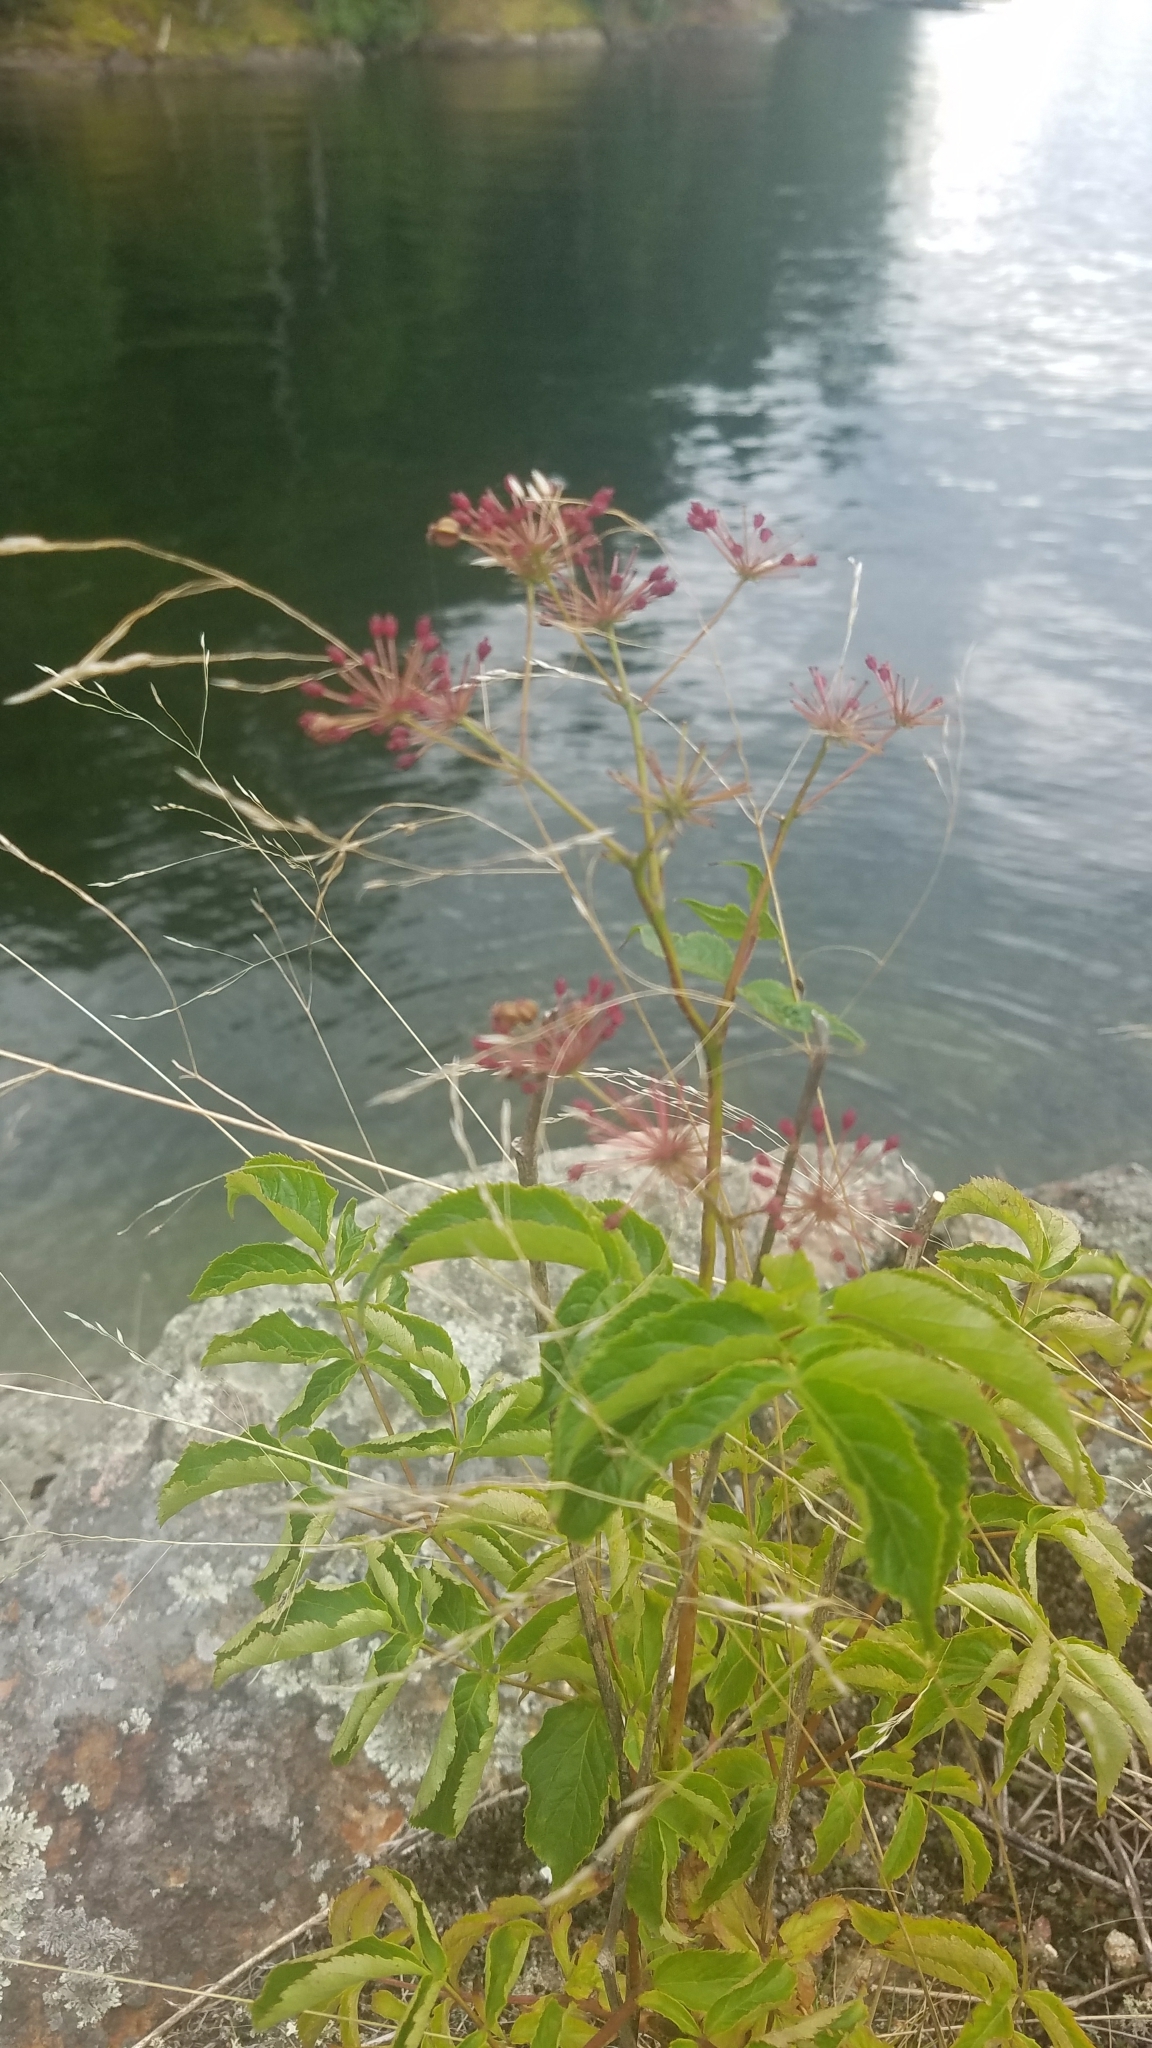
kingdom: Plantae
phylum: Tracheophyta
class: Magnoliopsida
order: Apiales
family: Araliaceae
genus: Aralia
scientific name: Aralia hispida
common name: Bristly sarsaparilla
